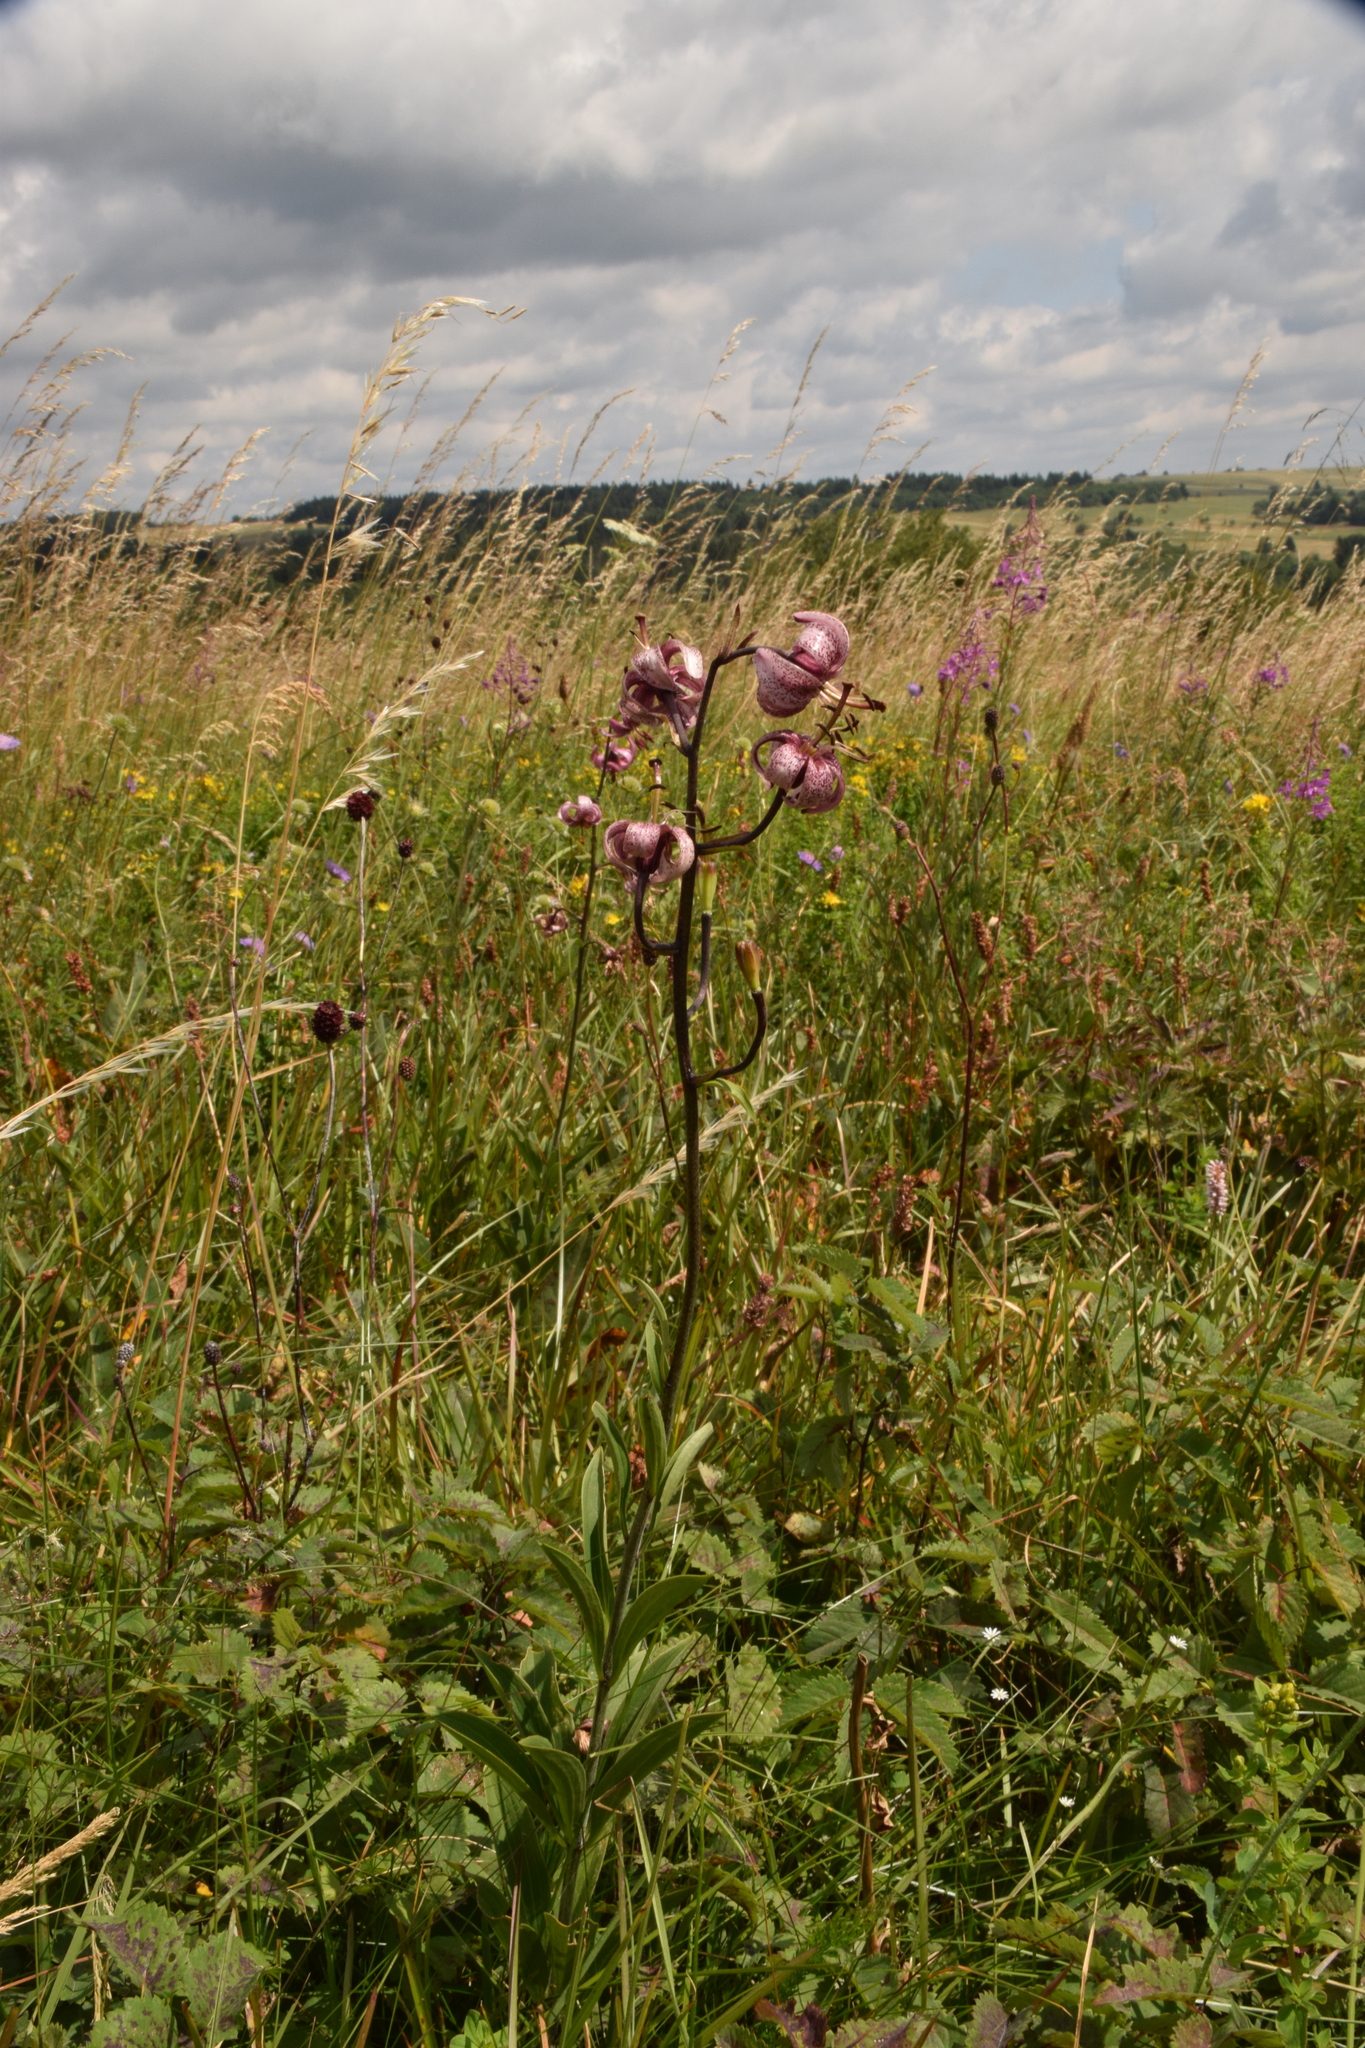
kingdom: Plantae
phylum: Tracheophyta
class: Liliopsida
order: Liliales
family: Liliaceae
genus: Lilium
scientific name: Lilium martagon
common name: Martagon lily
